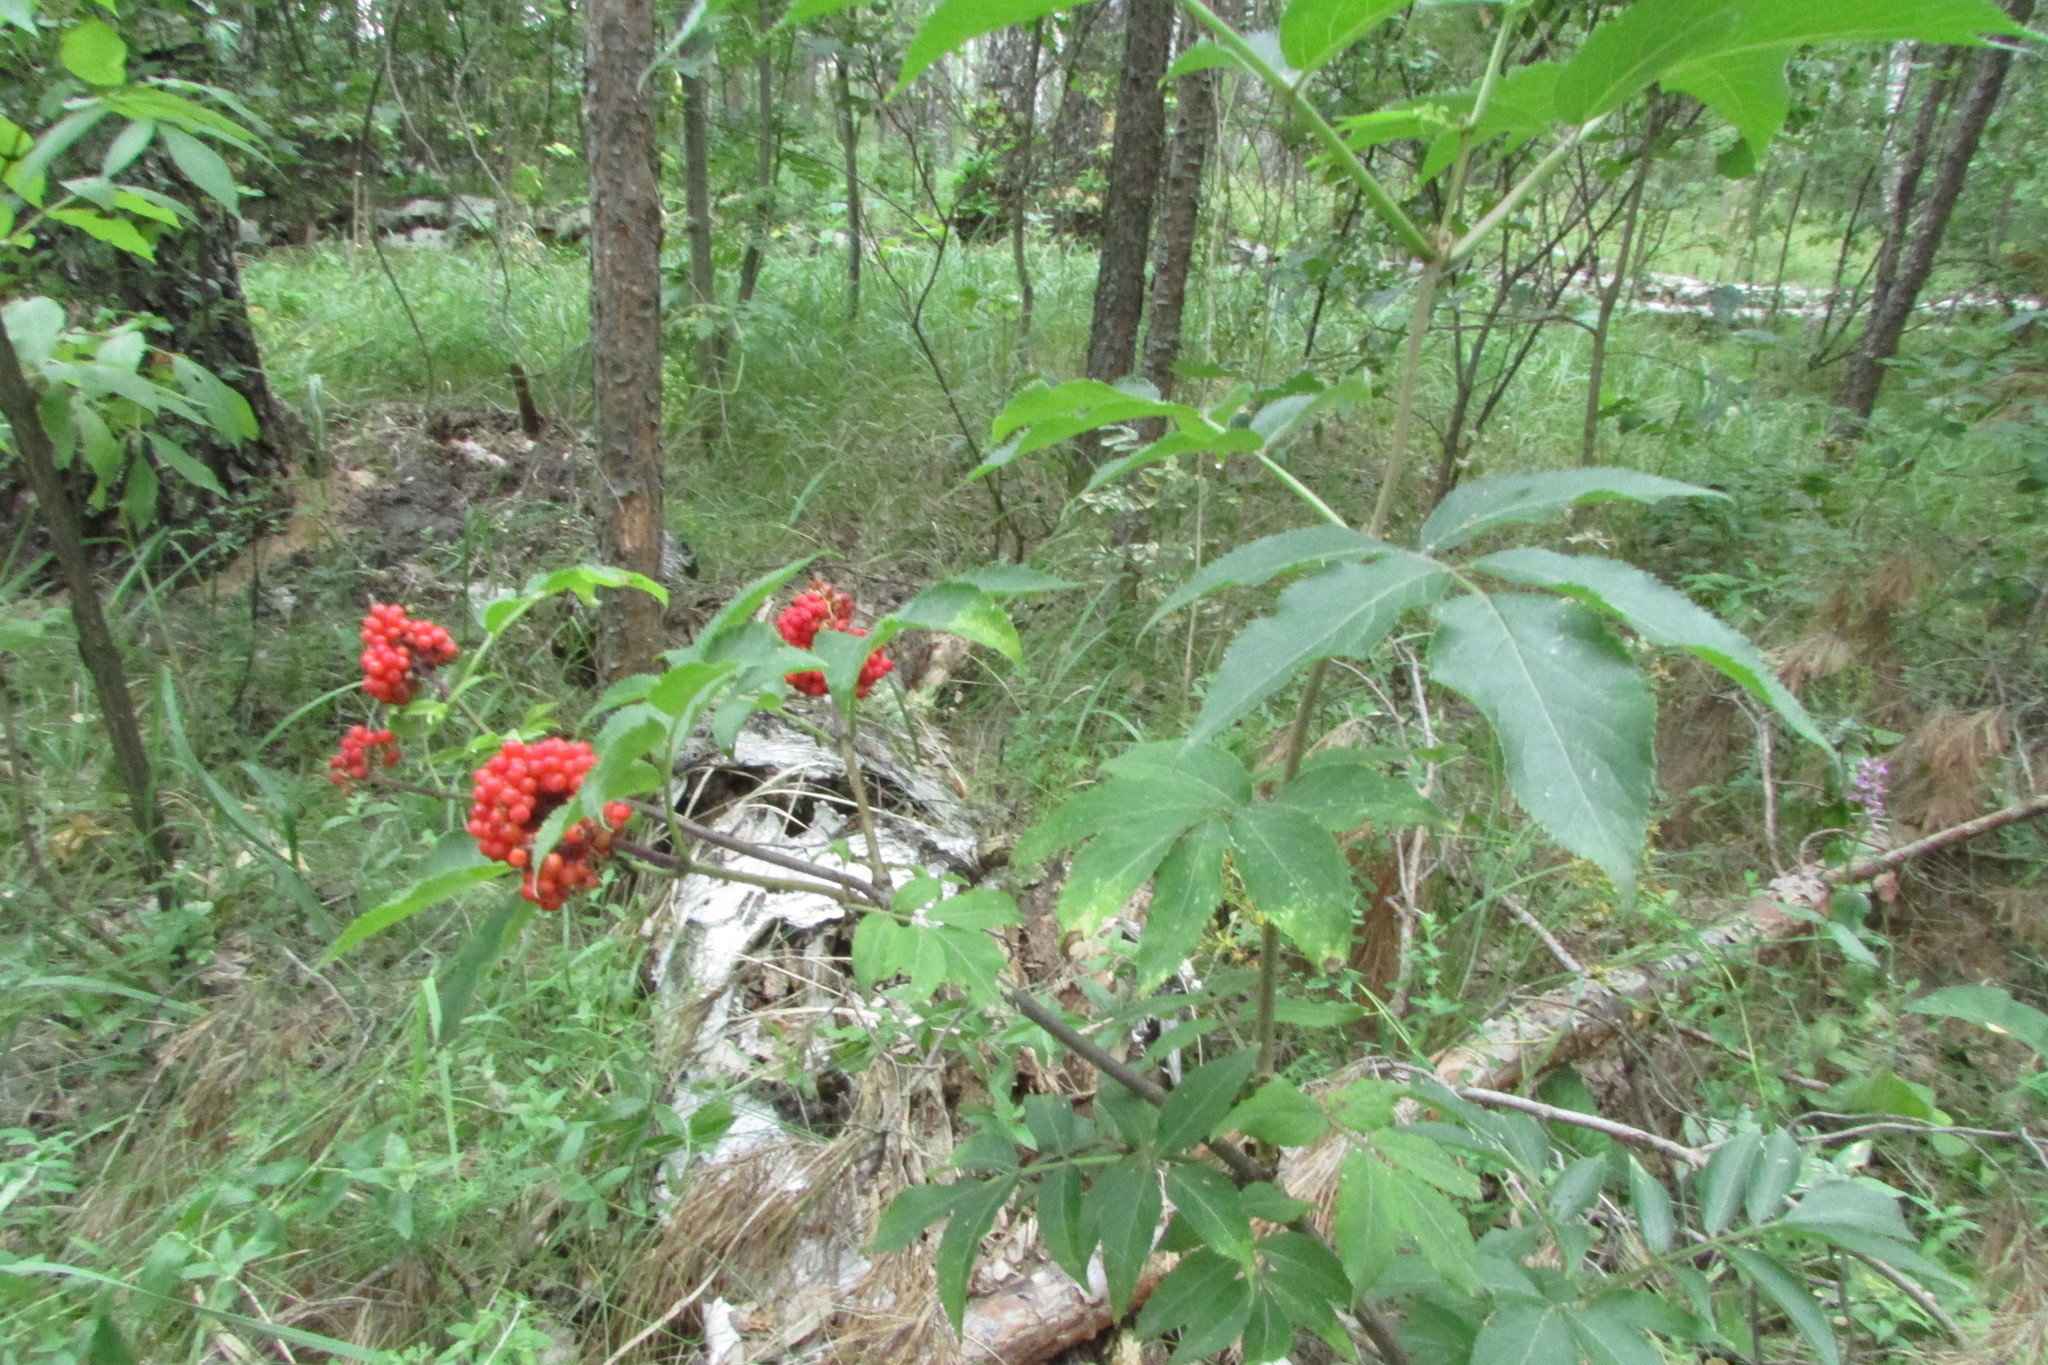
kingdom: Plantae
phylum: Tracheophyta
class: Magnoliopsida
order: Dipsacales
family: Viburnaceae
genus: Sambucus
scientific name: Sambucus racemosa
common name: Red-berried elder
